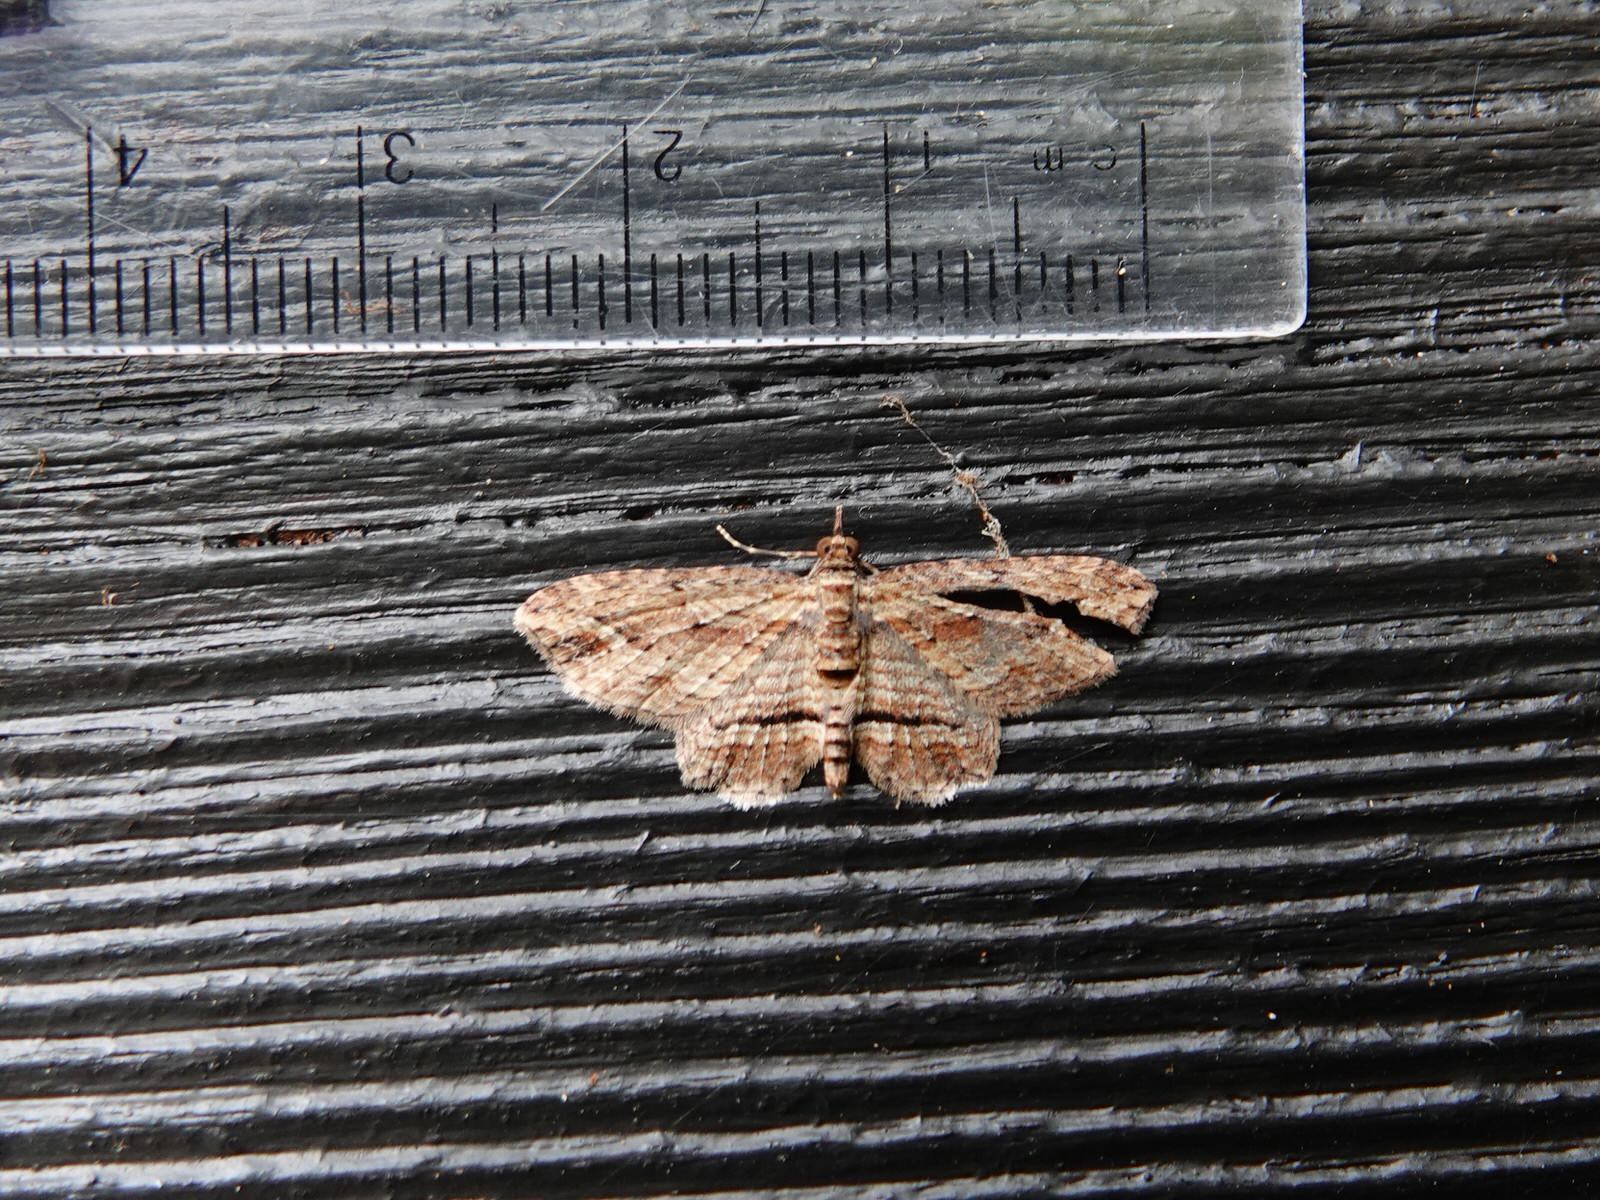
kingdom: Animalia
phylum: Arthropoda
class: Insecta
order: Lepidoptera
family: Geometridae
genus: Chloroclystis
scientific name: Chloroclystis filata
